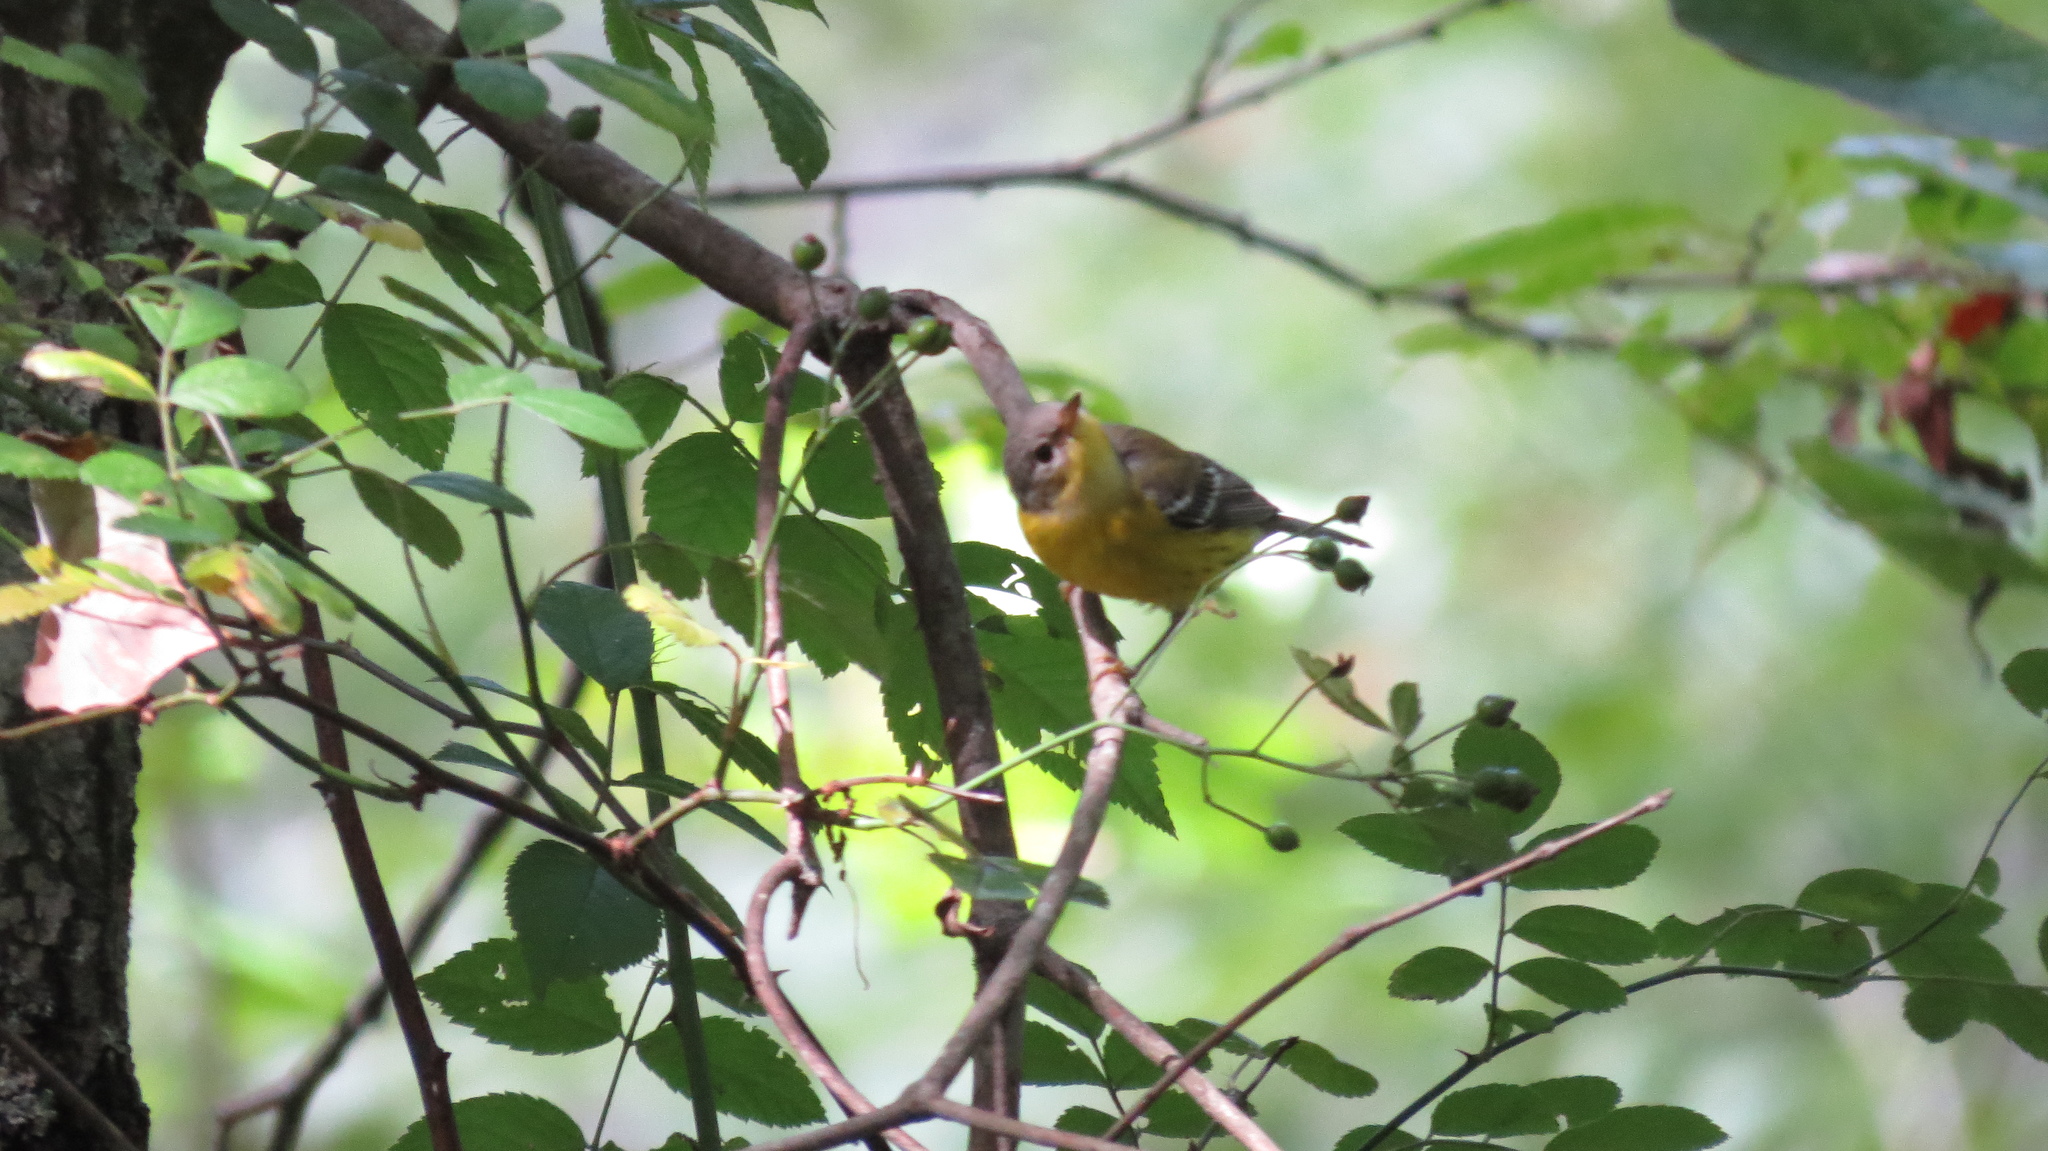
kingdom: Animalia
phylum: Chordata
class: Aves
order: Passeriformes
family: Parulidae
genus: Setophaga
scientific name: Setophaga magnolia
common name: Magnolia warbler
